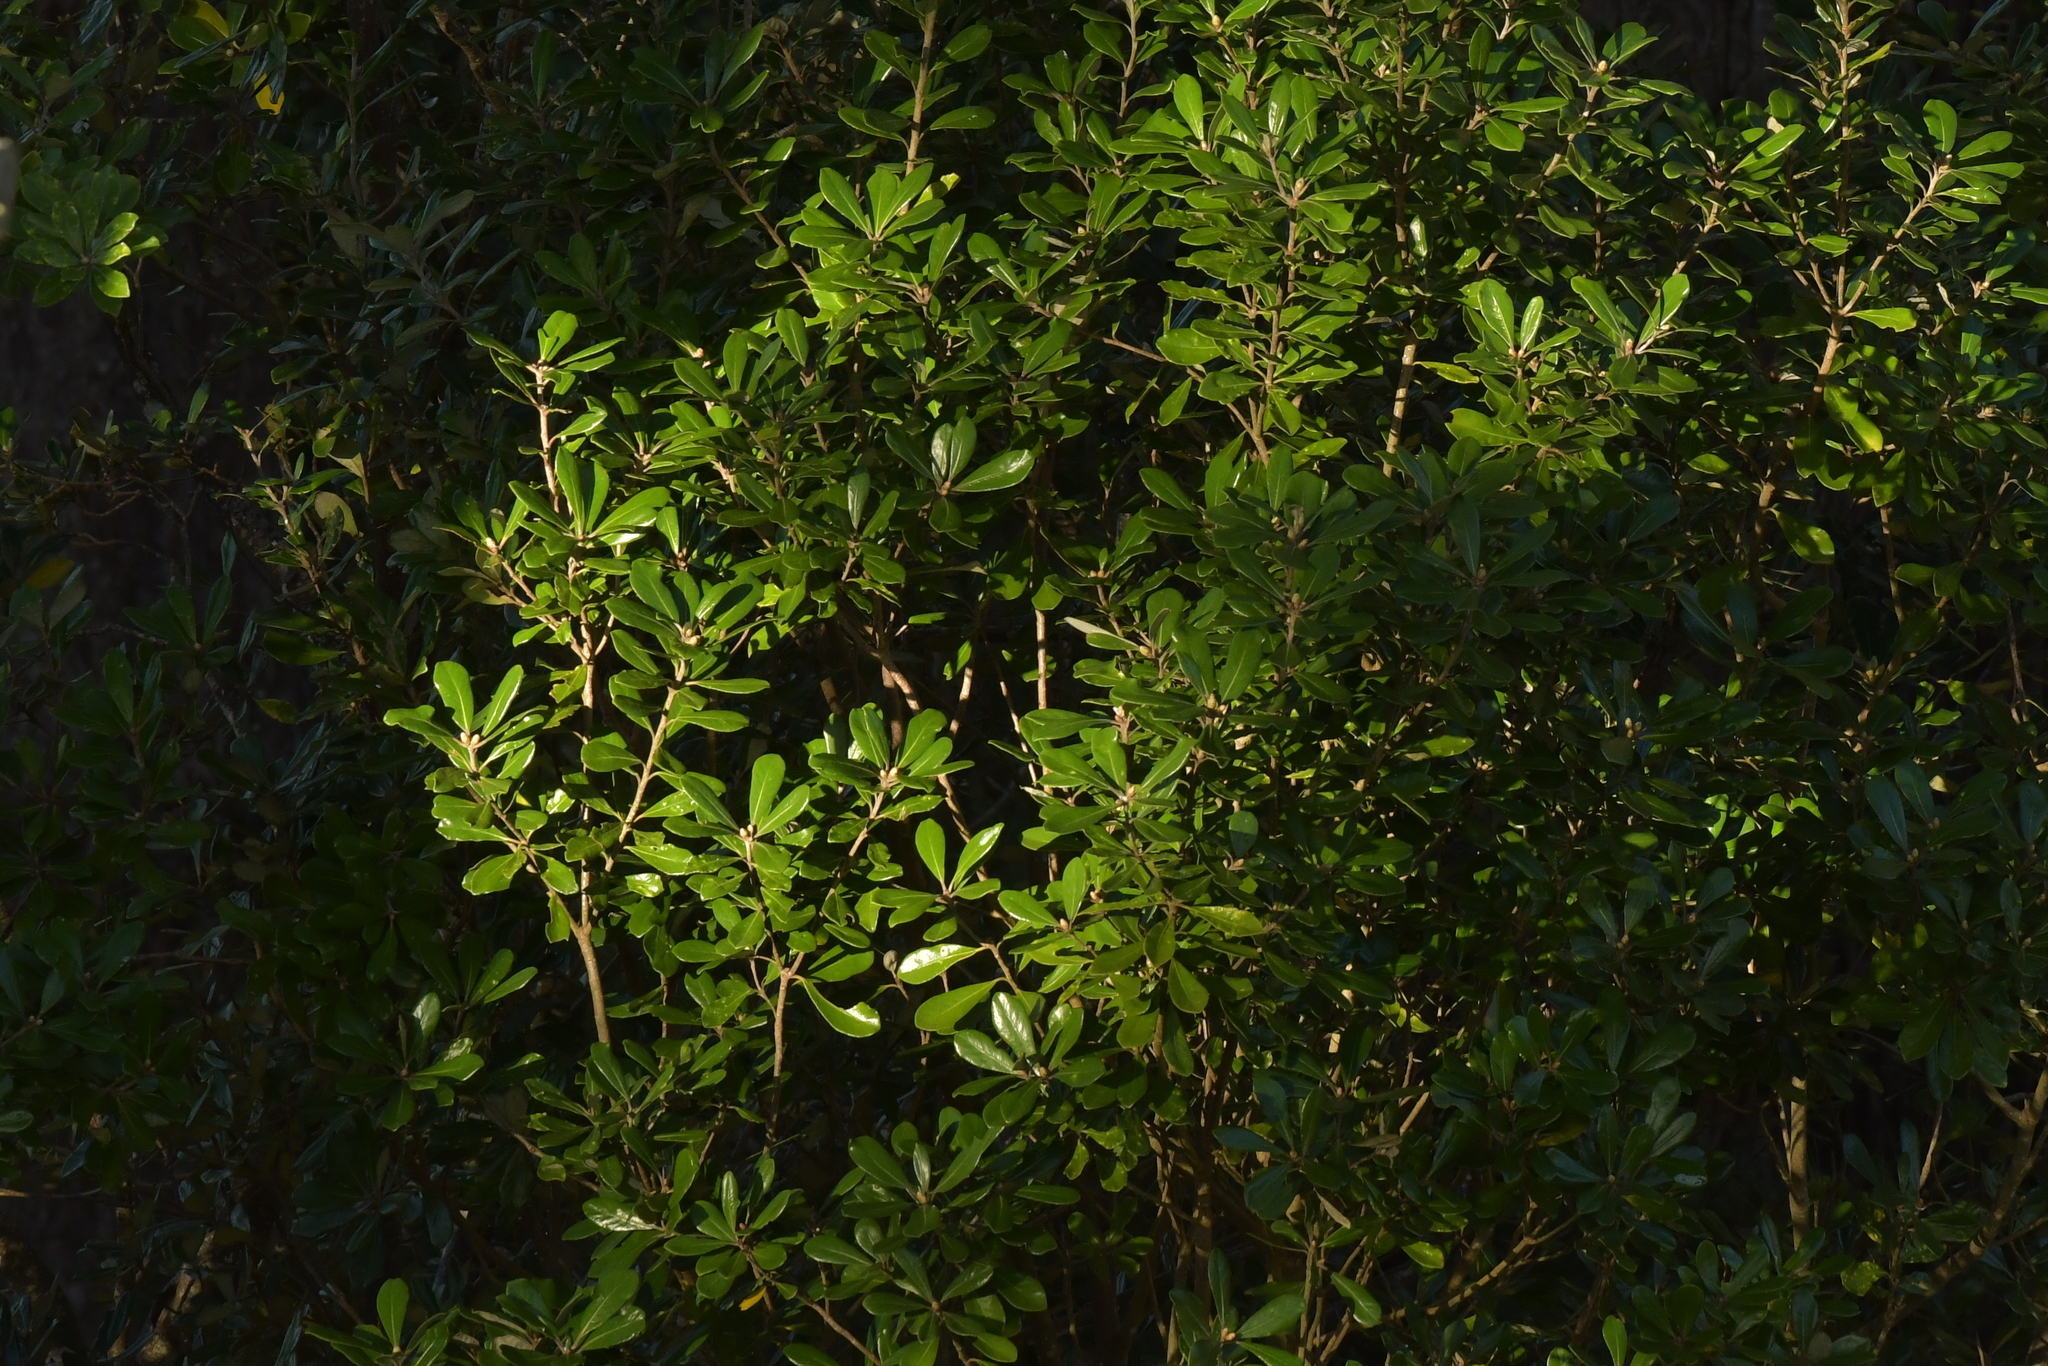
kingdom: Plantae
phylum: Tracheophyta
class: Magnoliopsida
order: Apiales
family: Pittosporaceae
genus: Pittosporum
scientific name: Pittosporum crassifolium
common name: Karo
